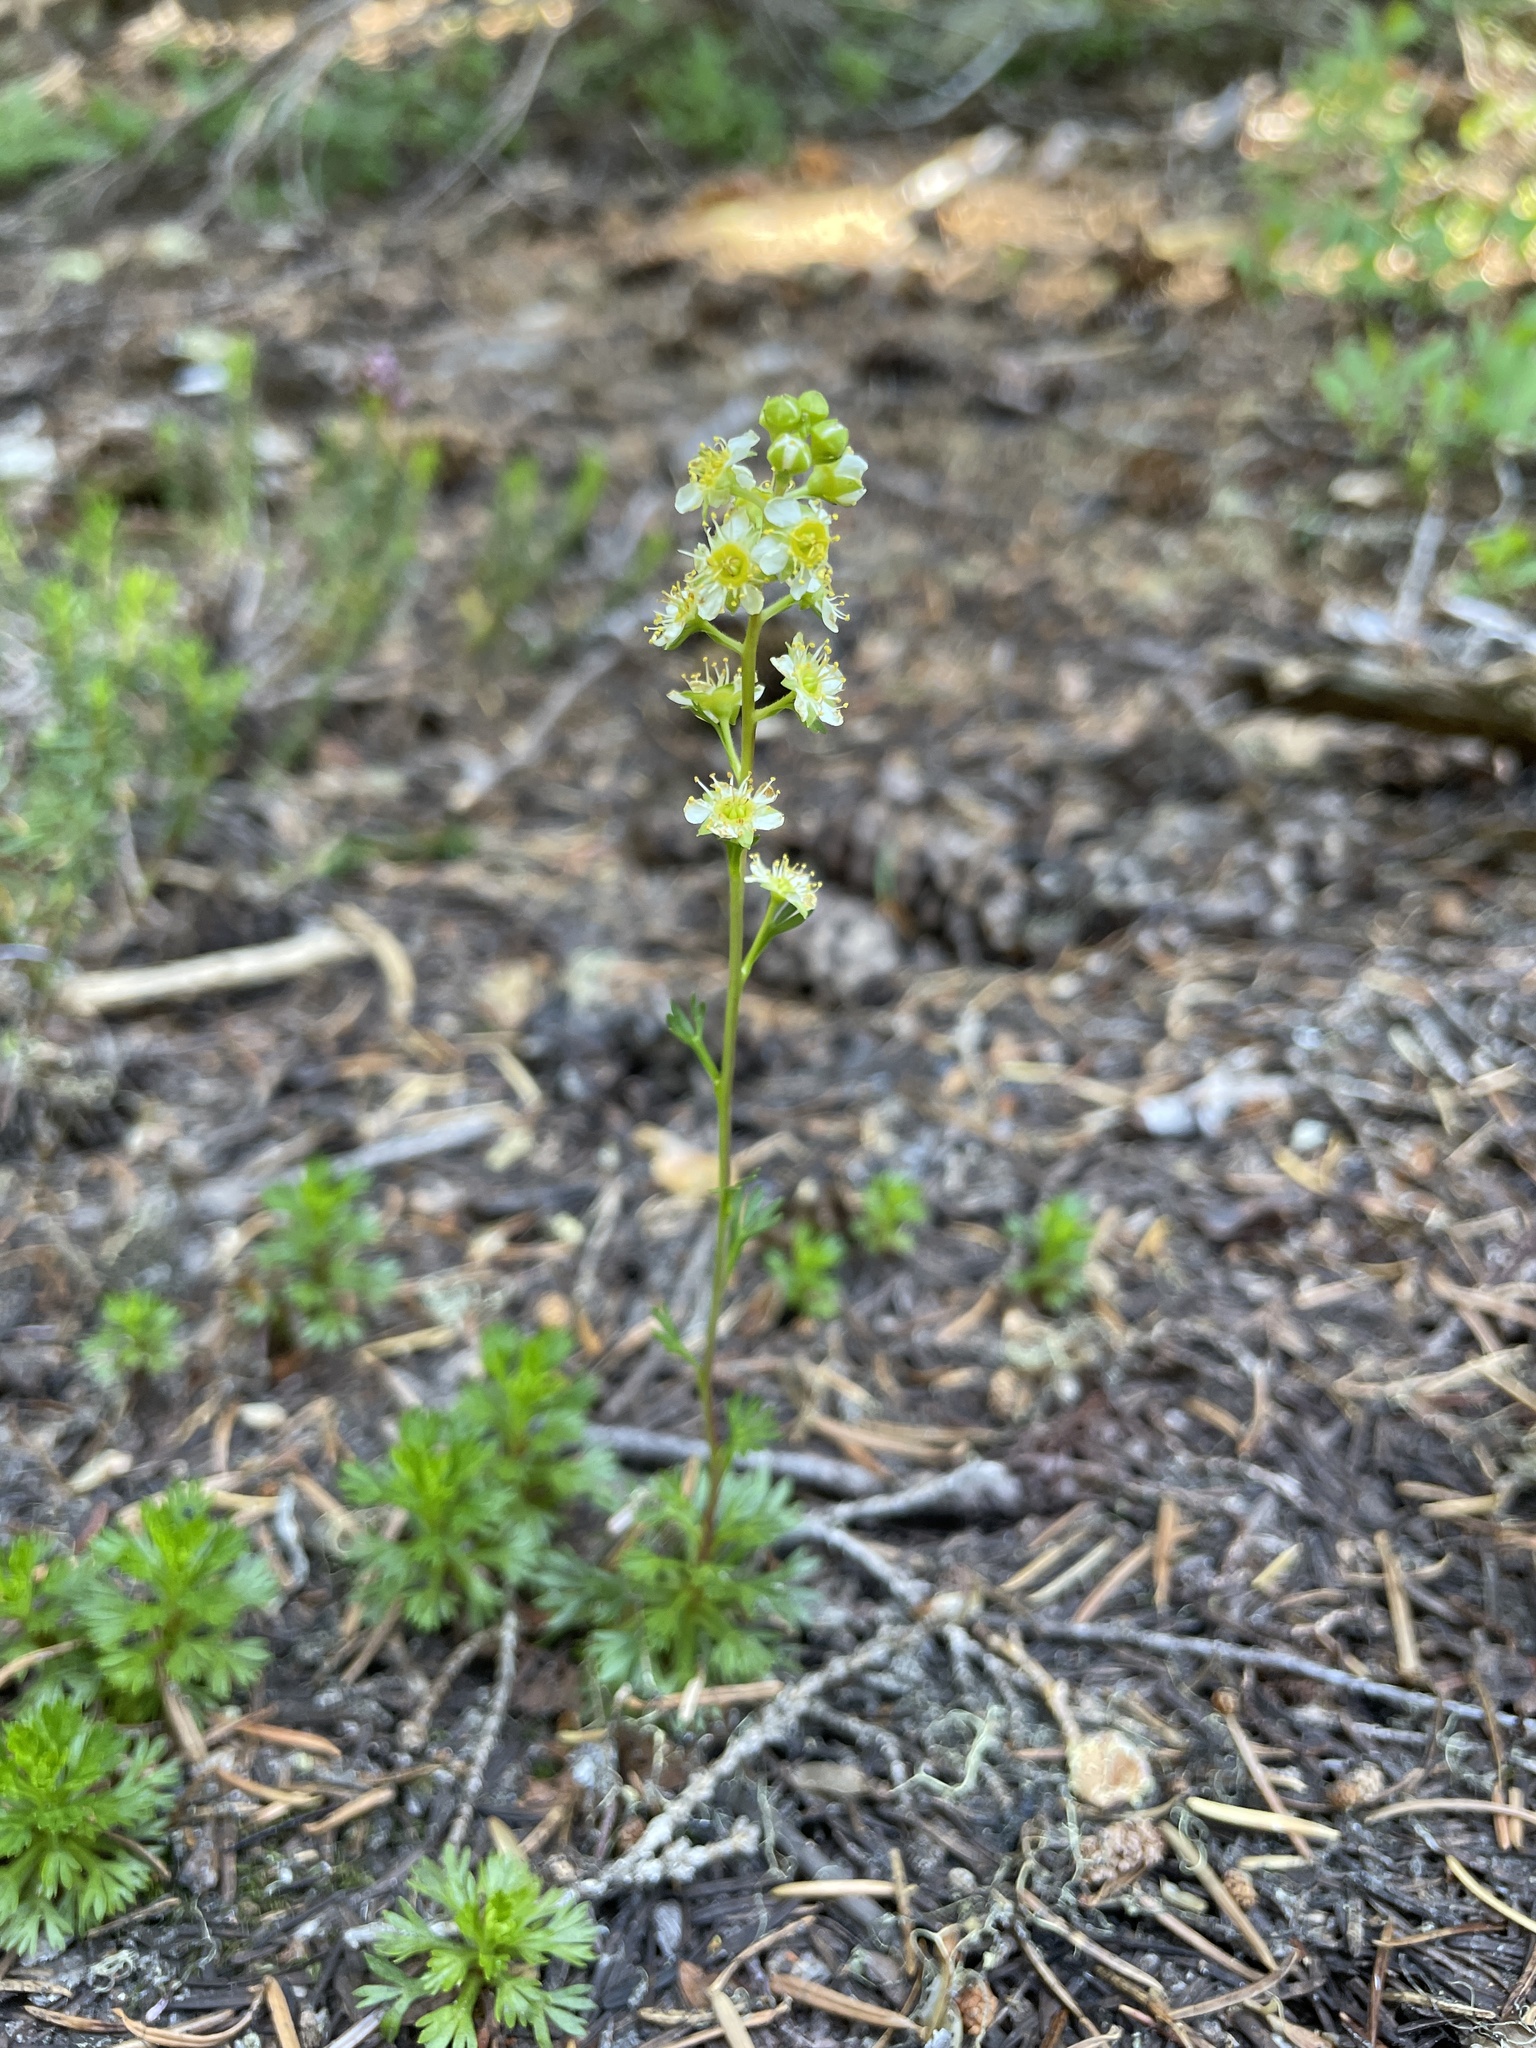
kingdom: Plantae
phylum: Tracheophyta
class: Magnoliopsida
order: Rosales
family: Rosaceae
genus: Luetkea
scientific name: Luetkea pectinata
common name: Partridgefoot
